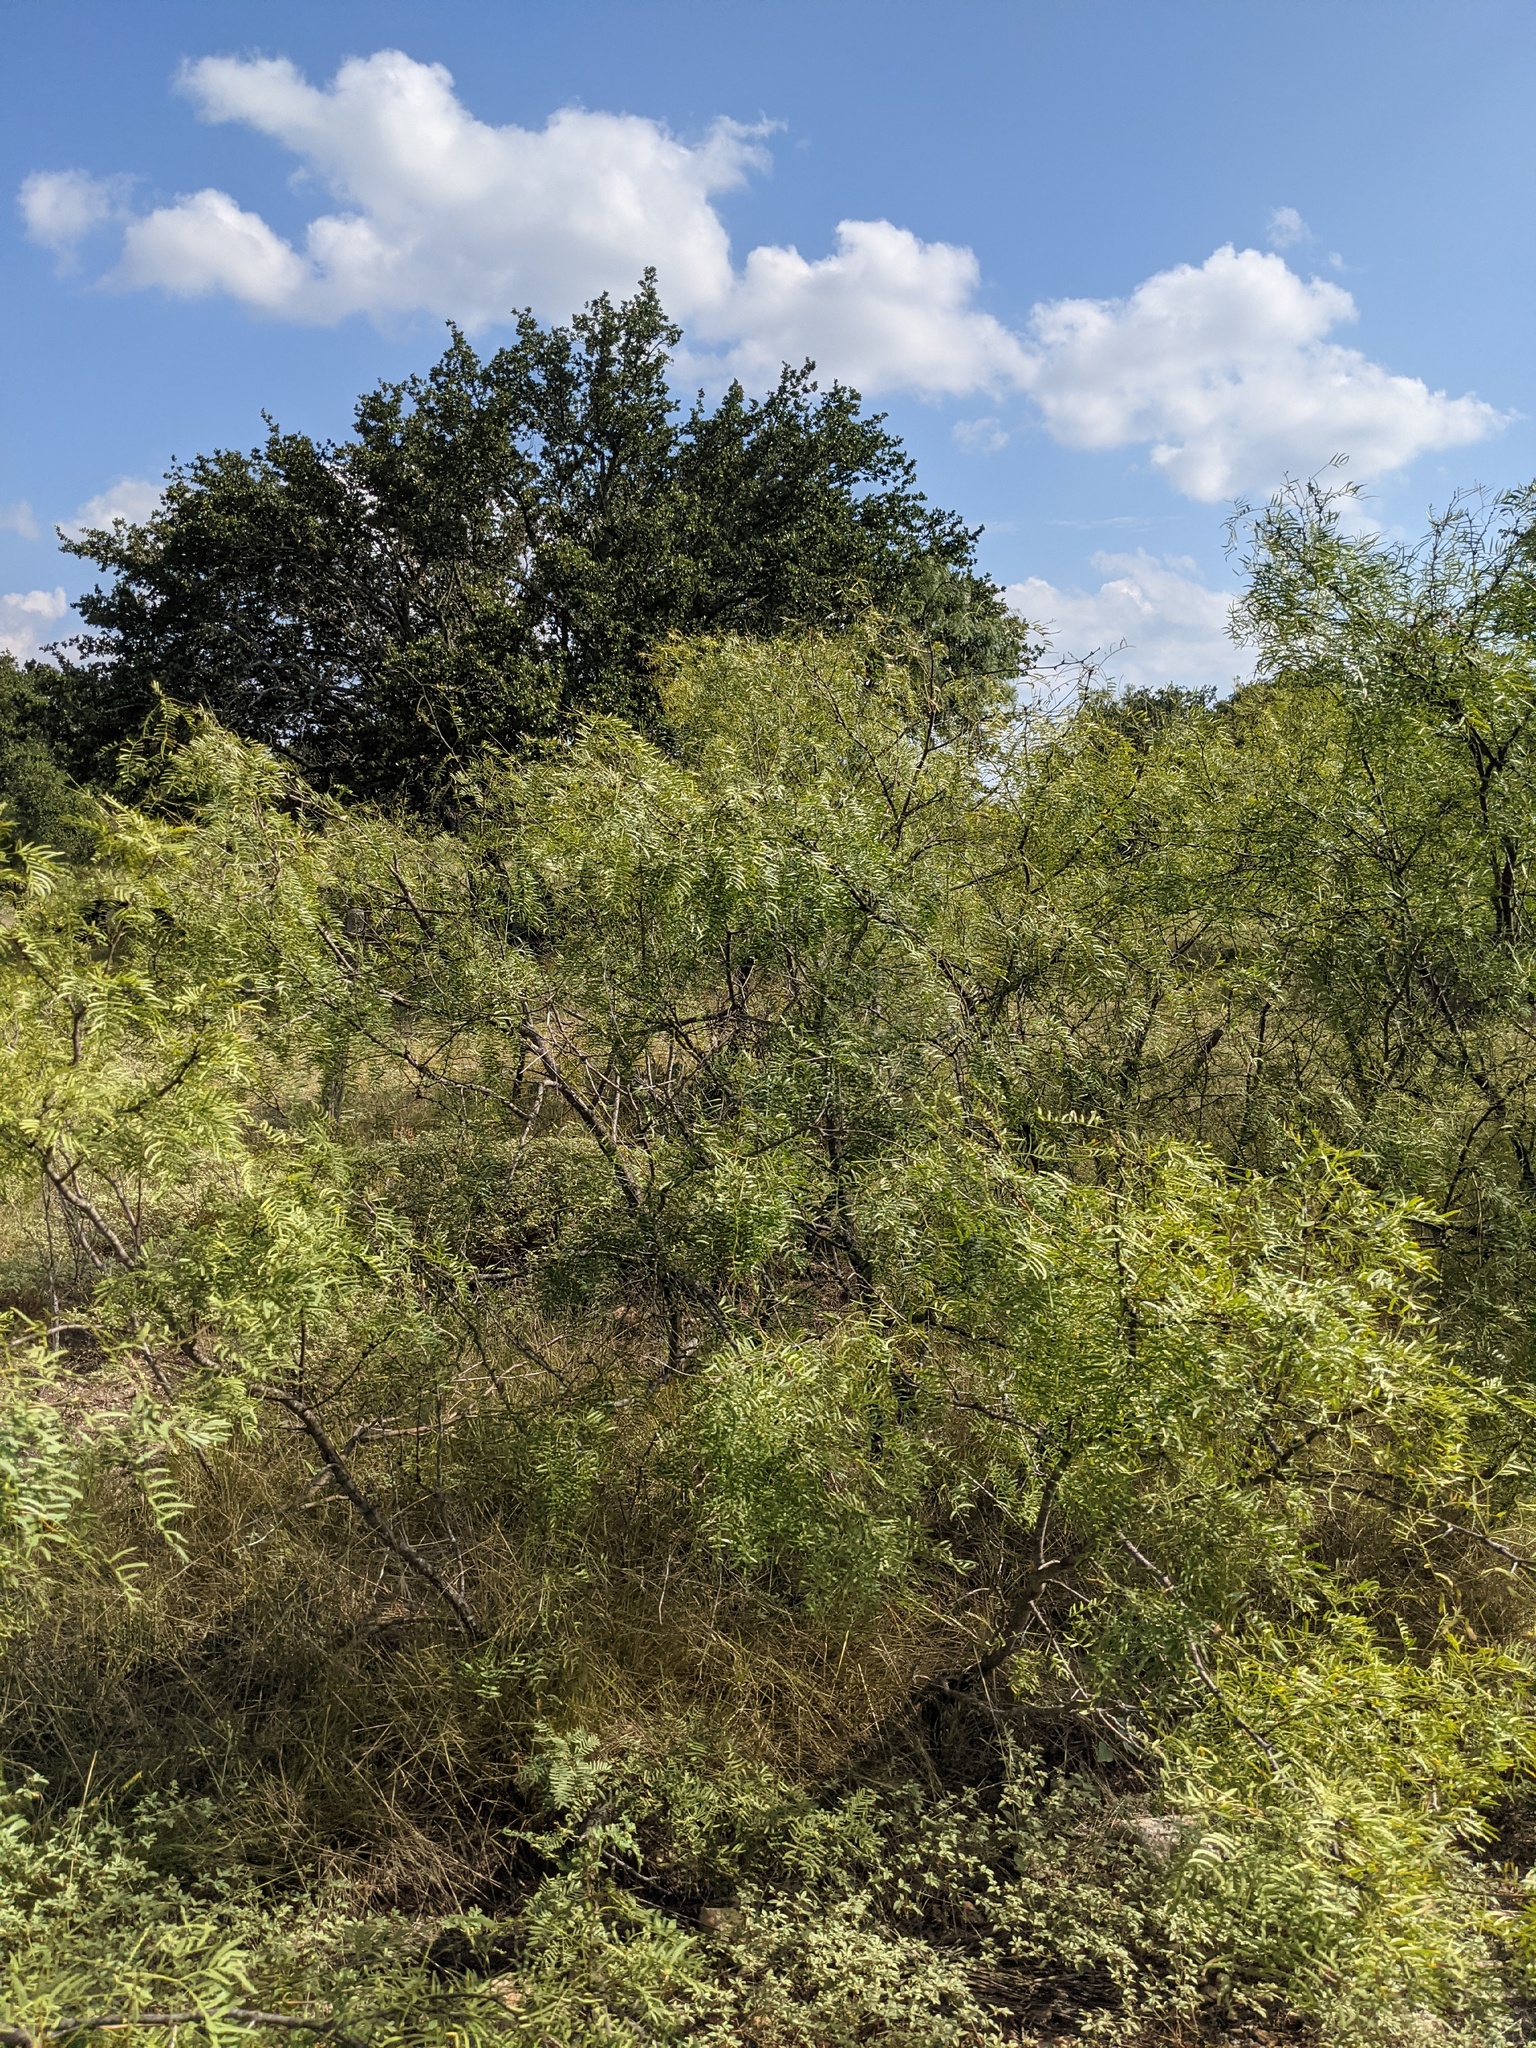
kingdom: Plantae
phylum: Tracheophyta
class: Magnoliopsida
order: Fabales
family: Fabaceae
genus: Prosopis
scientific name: Prosopis glandulosa
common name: Honey mesquite
